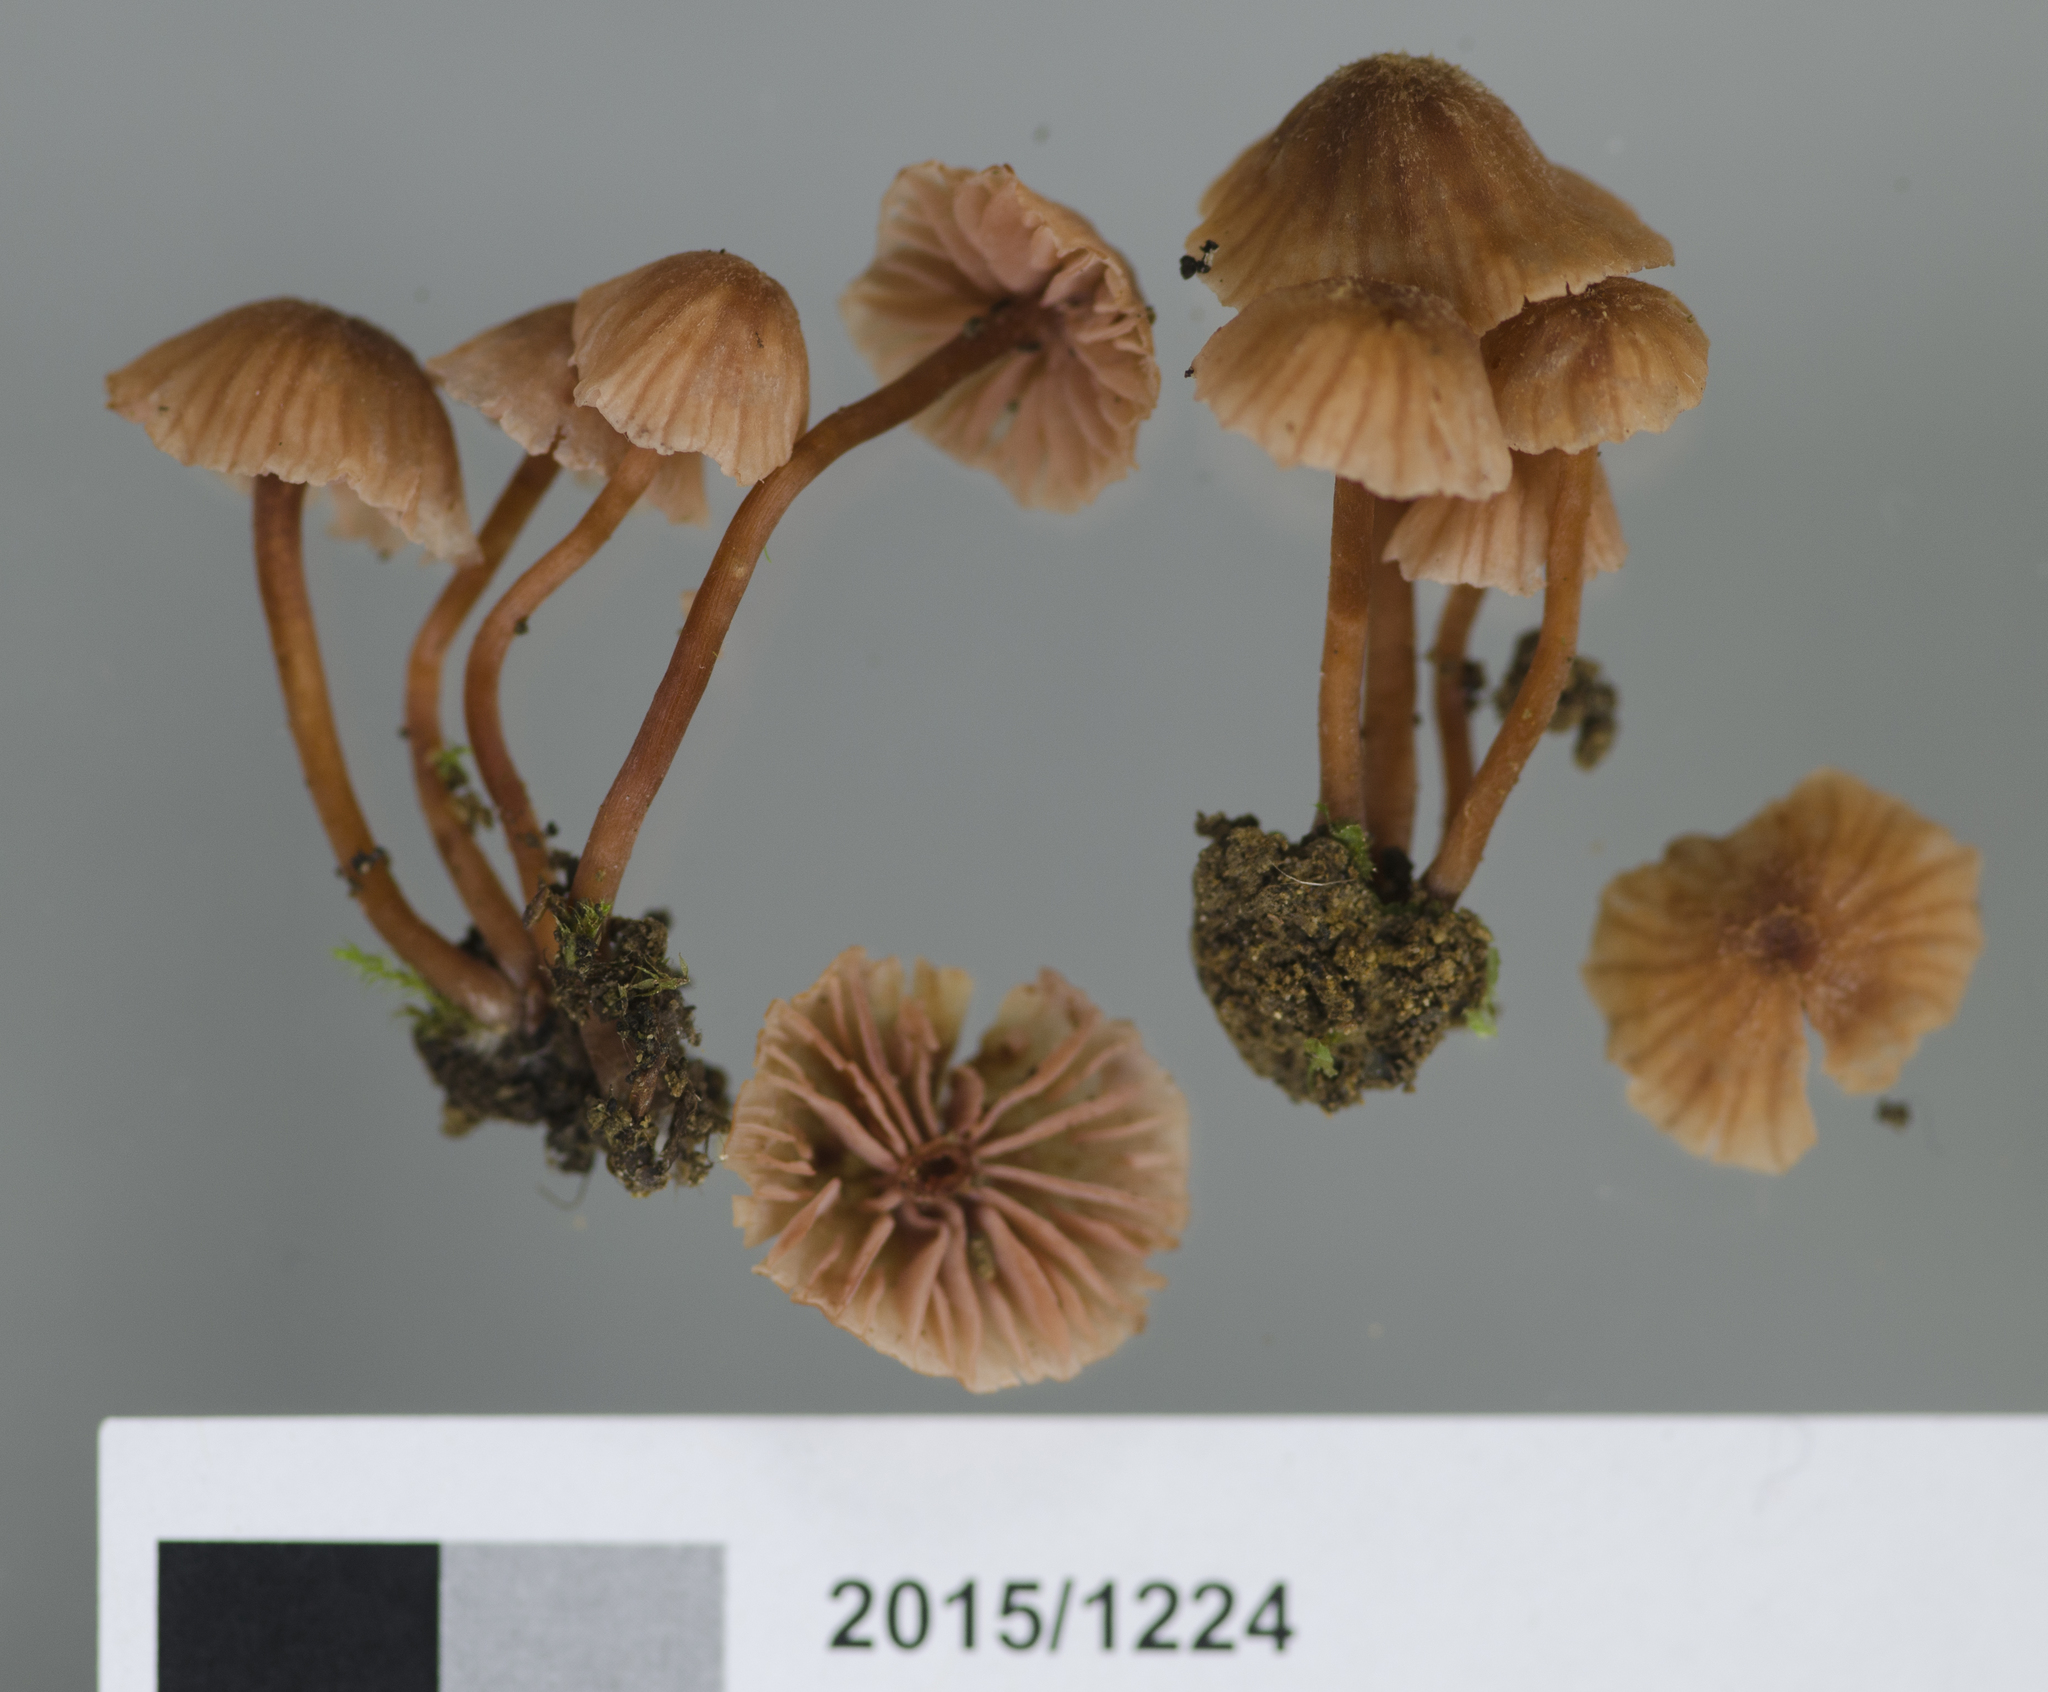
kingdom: Fungi
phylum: Basidiomycota
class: Agaricomycetes
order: Agaricales
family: Hydnangiaceae
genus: Laccaria
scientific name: Laccaria glabripes
